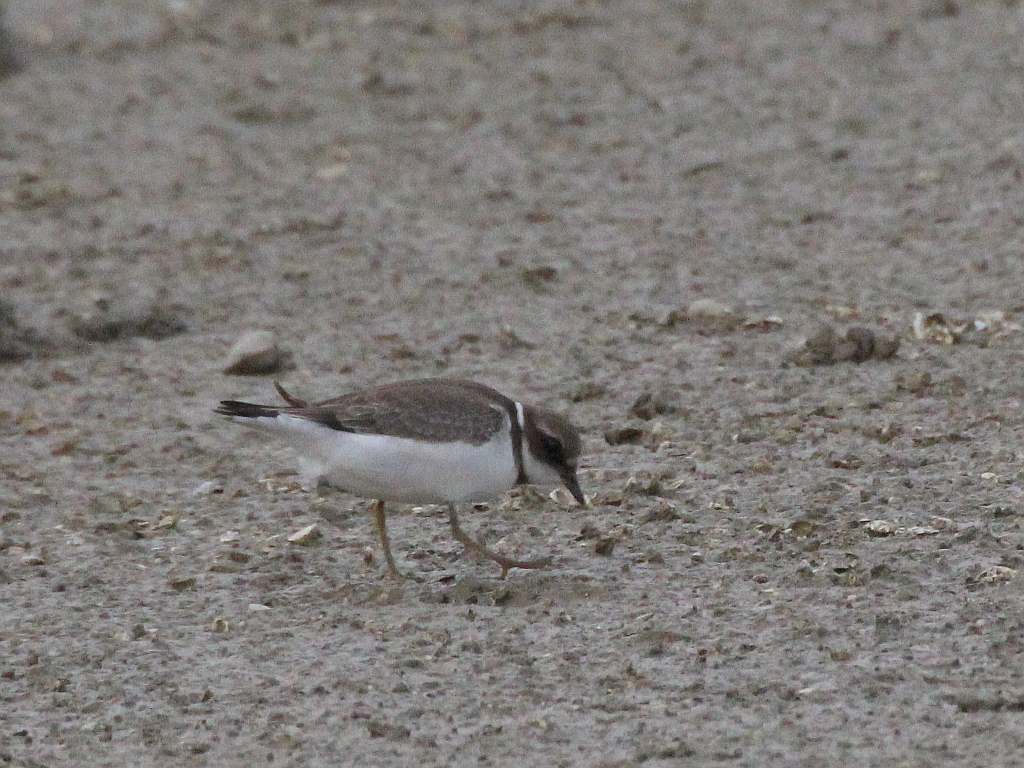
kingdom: Animalia
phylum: Chordata
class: Aves
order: Charadriiformes
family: Charadriidae
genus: Charadrius
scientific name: Charadrius hiaticula
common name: Common ringed plover
